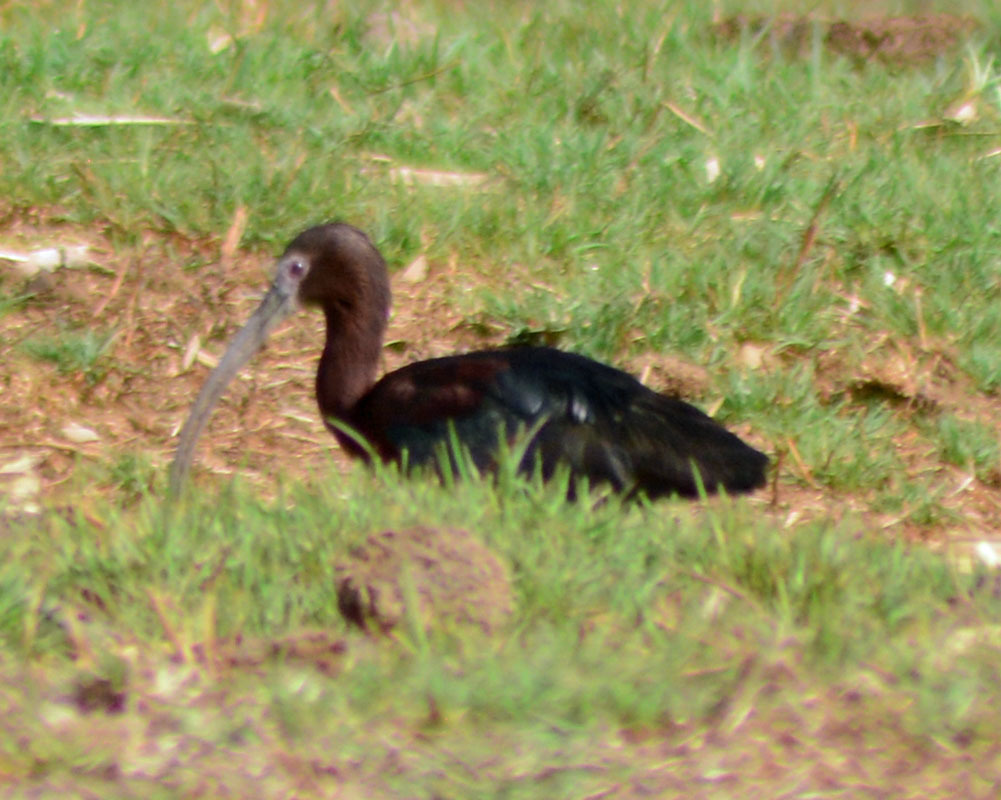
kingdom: Animalia
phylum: Chordata
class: Aves
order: Pelecaniformes
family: Threskiornithidae
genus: Plegadis
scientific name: Plegadis chihi
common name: White-faced ibis
